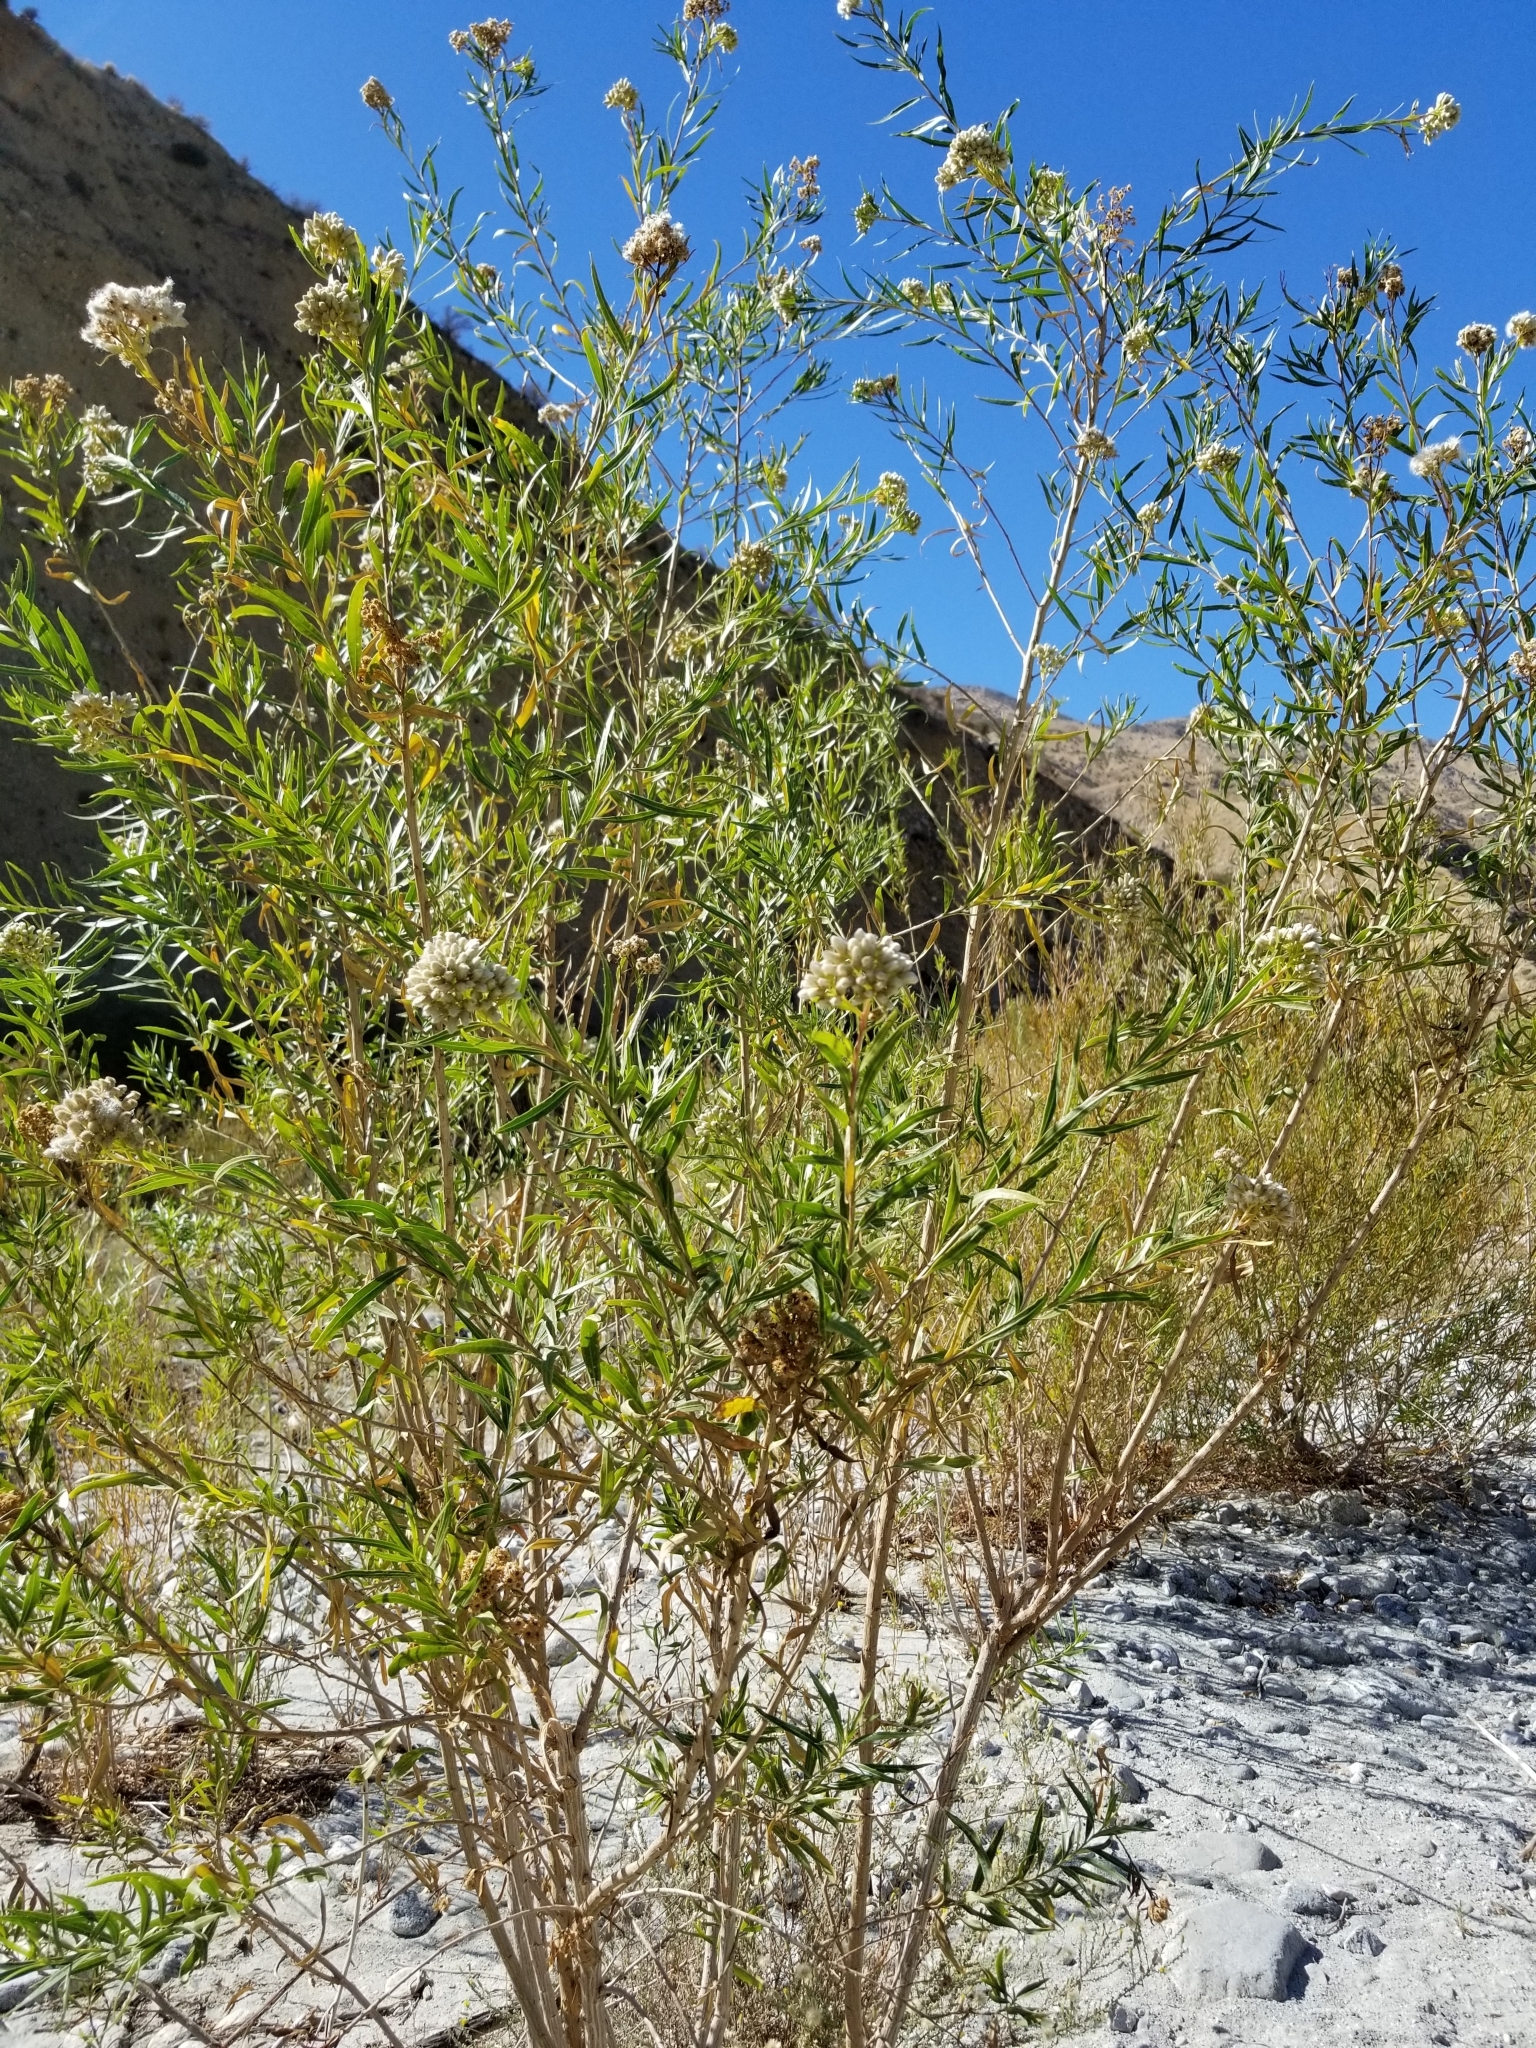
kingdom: Plantae
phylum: Tracheophyta
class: Magnoliopsida
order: Asterales
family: Asteraceae
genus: Baccharis
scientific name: Baccharis salicifolia
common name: Sticky baccharis
